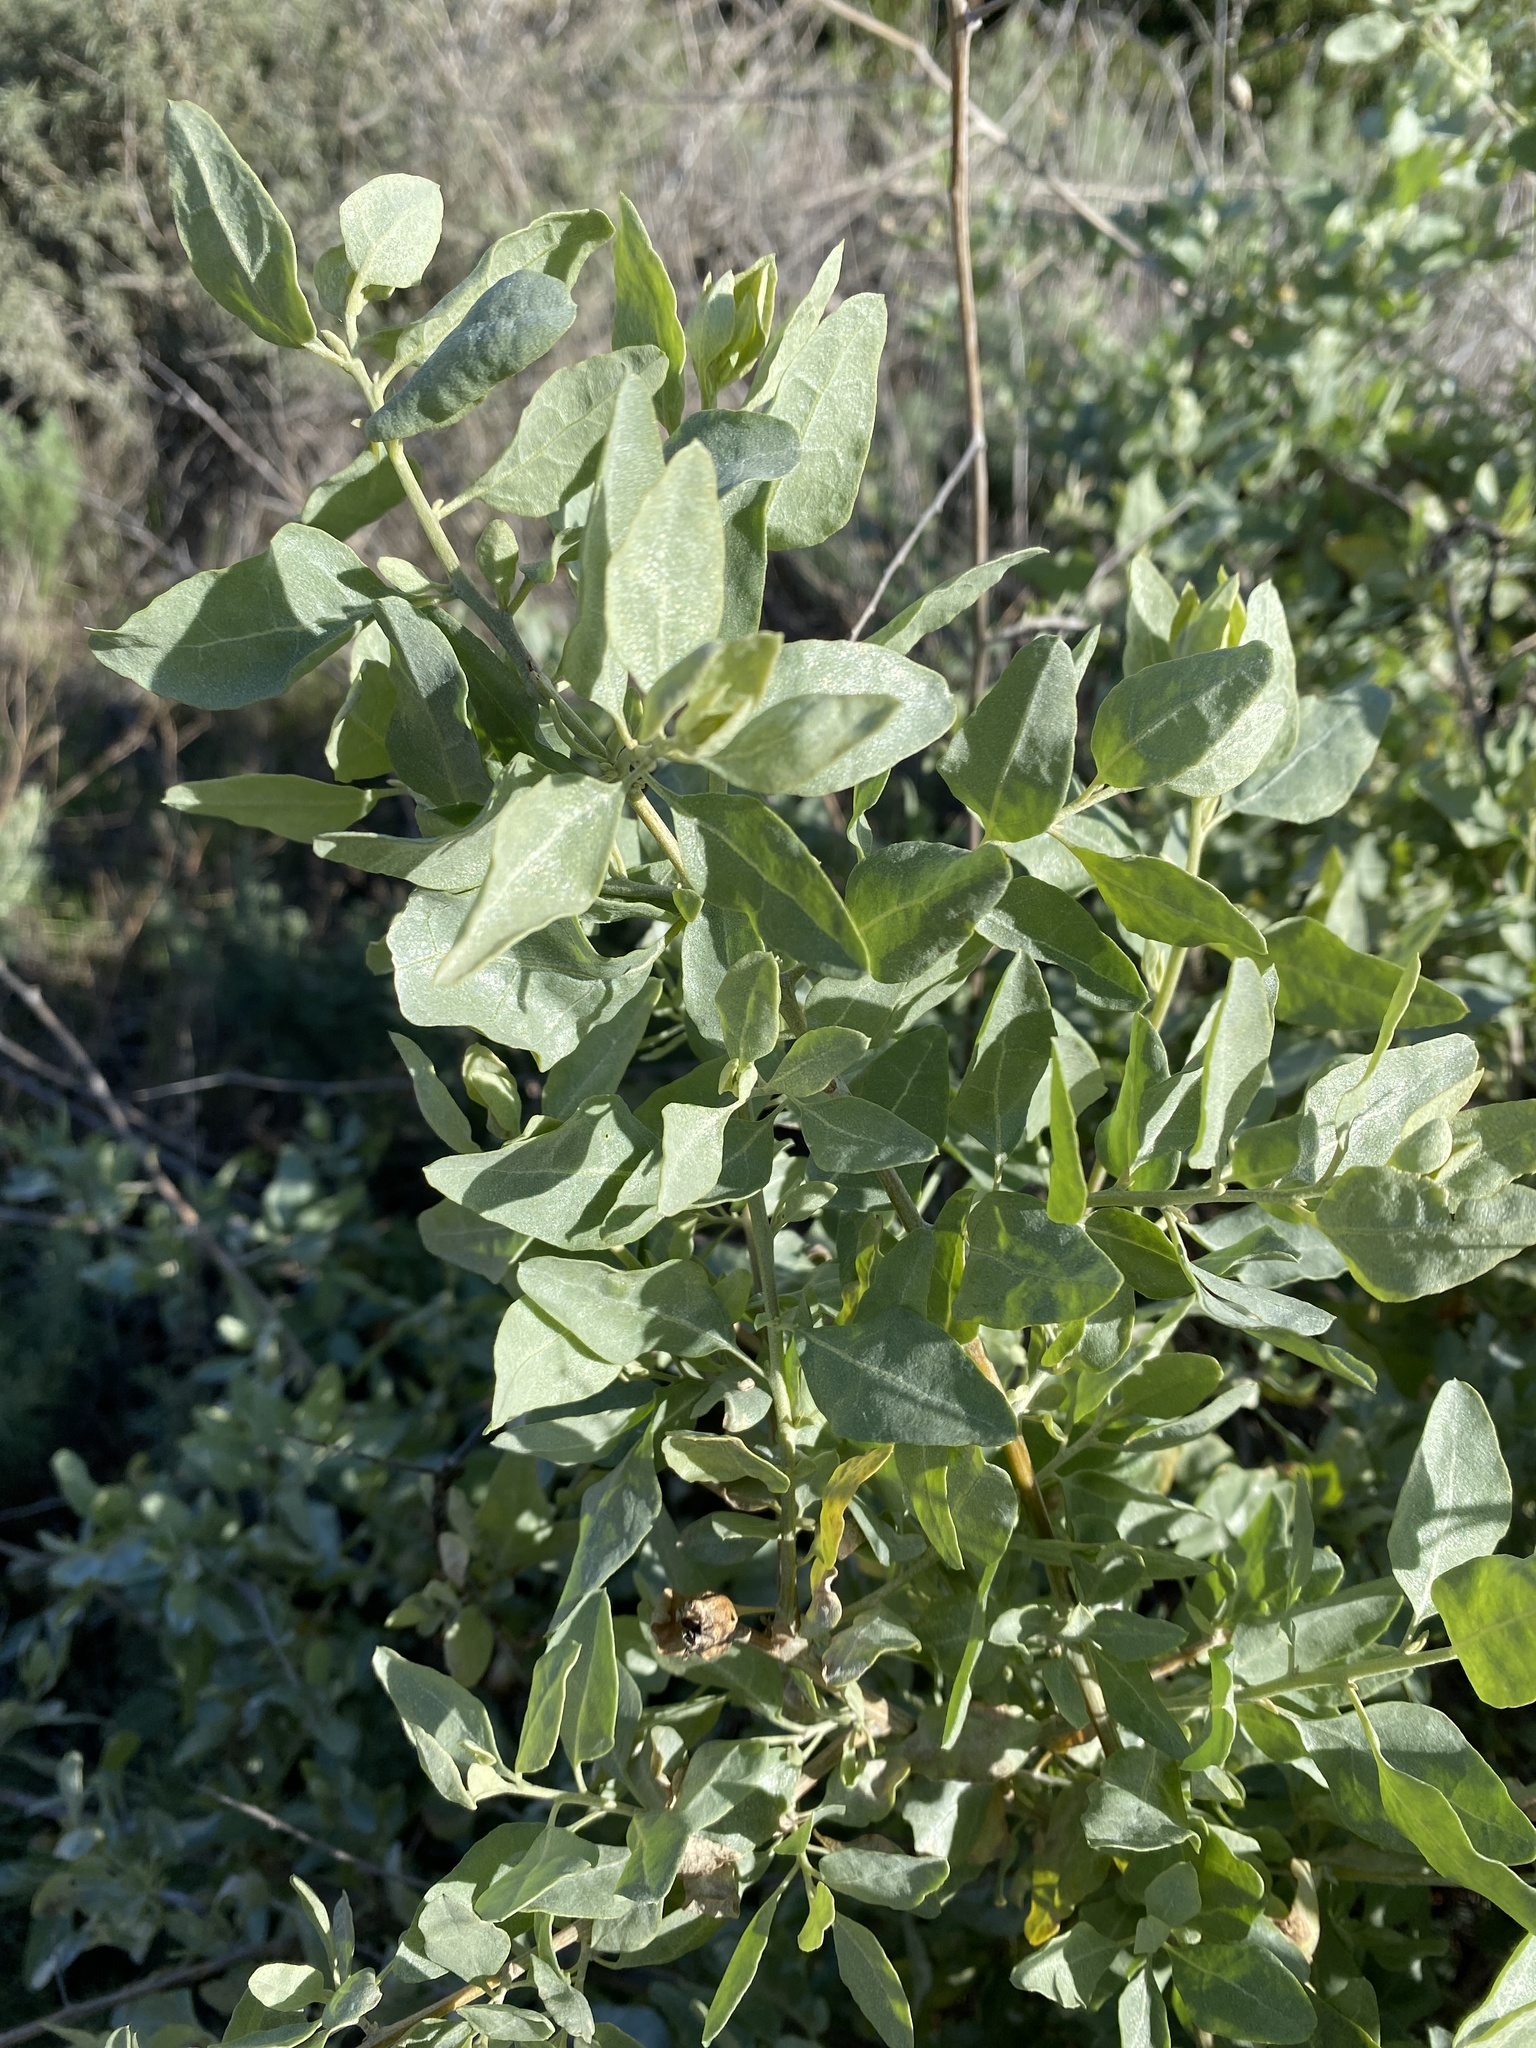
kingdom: Plantae
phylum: Tracheophyta
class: Magnoliopsida
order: Caryophyllales
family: Amaranthaceae
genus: Atriplex
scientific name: Atriplex lentiformis
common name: Big saltbush
